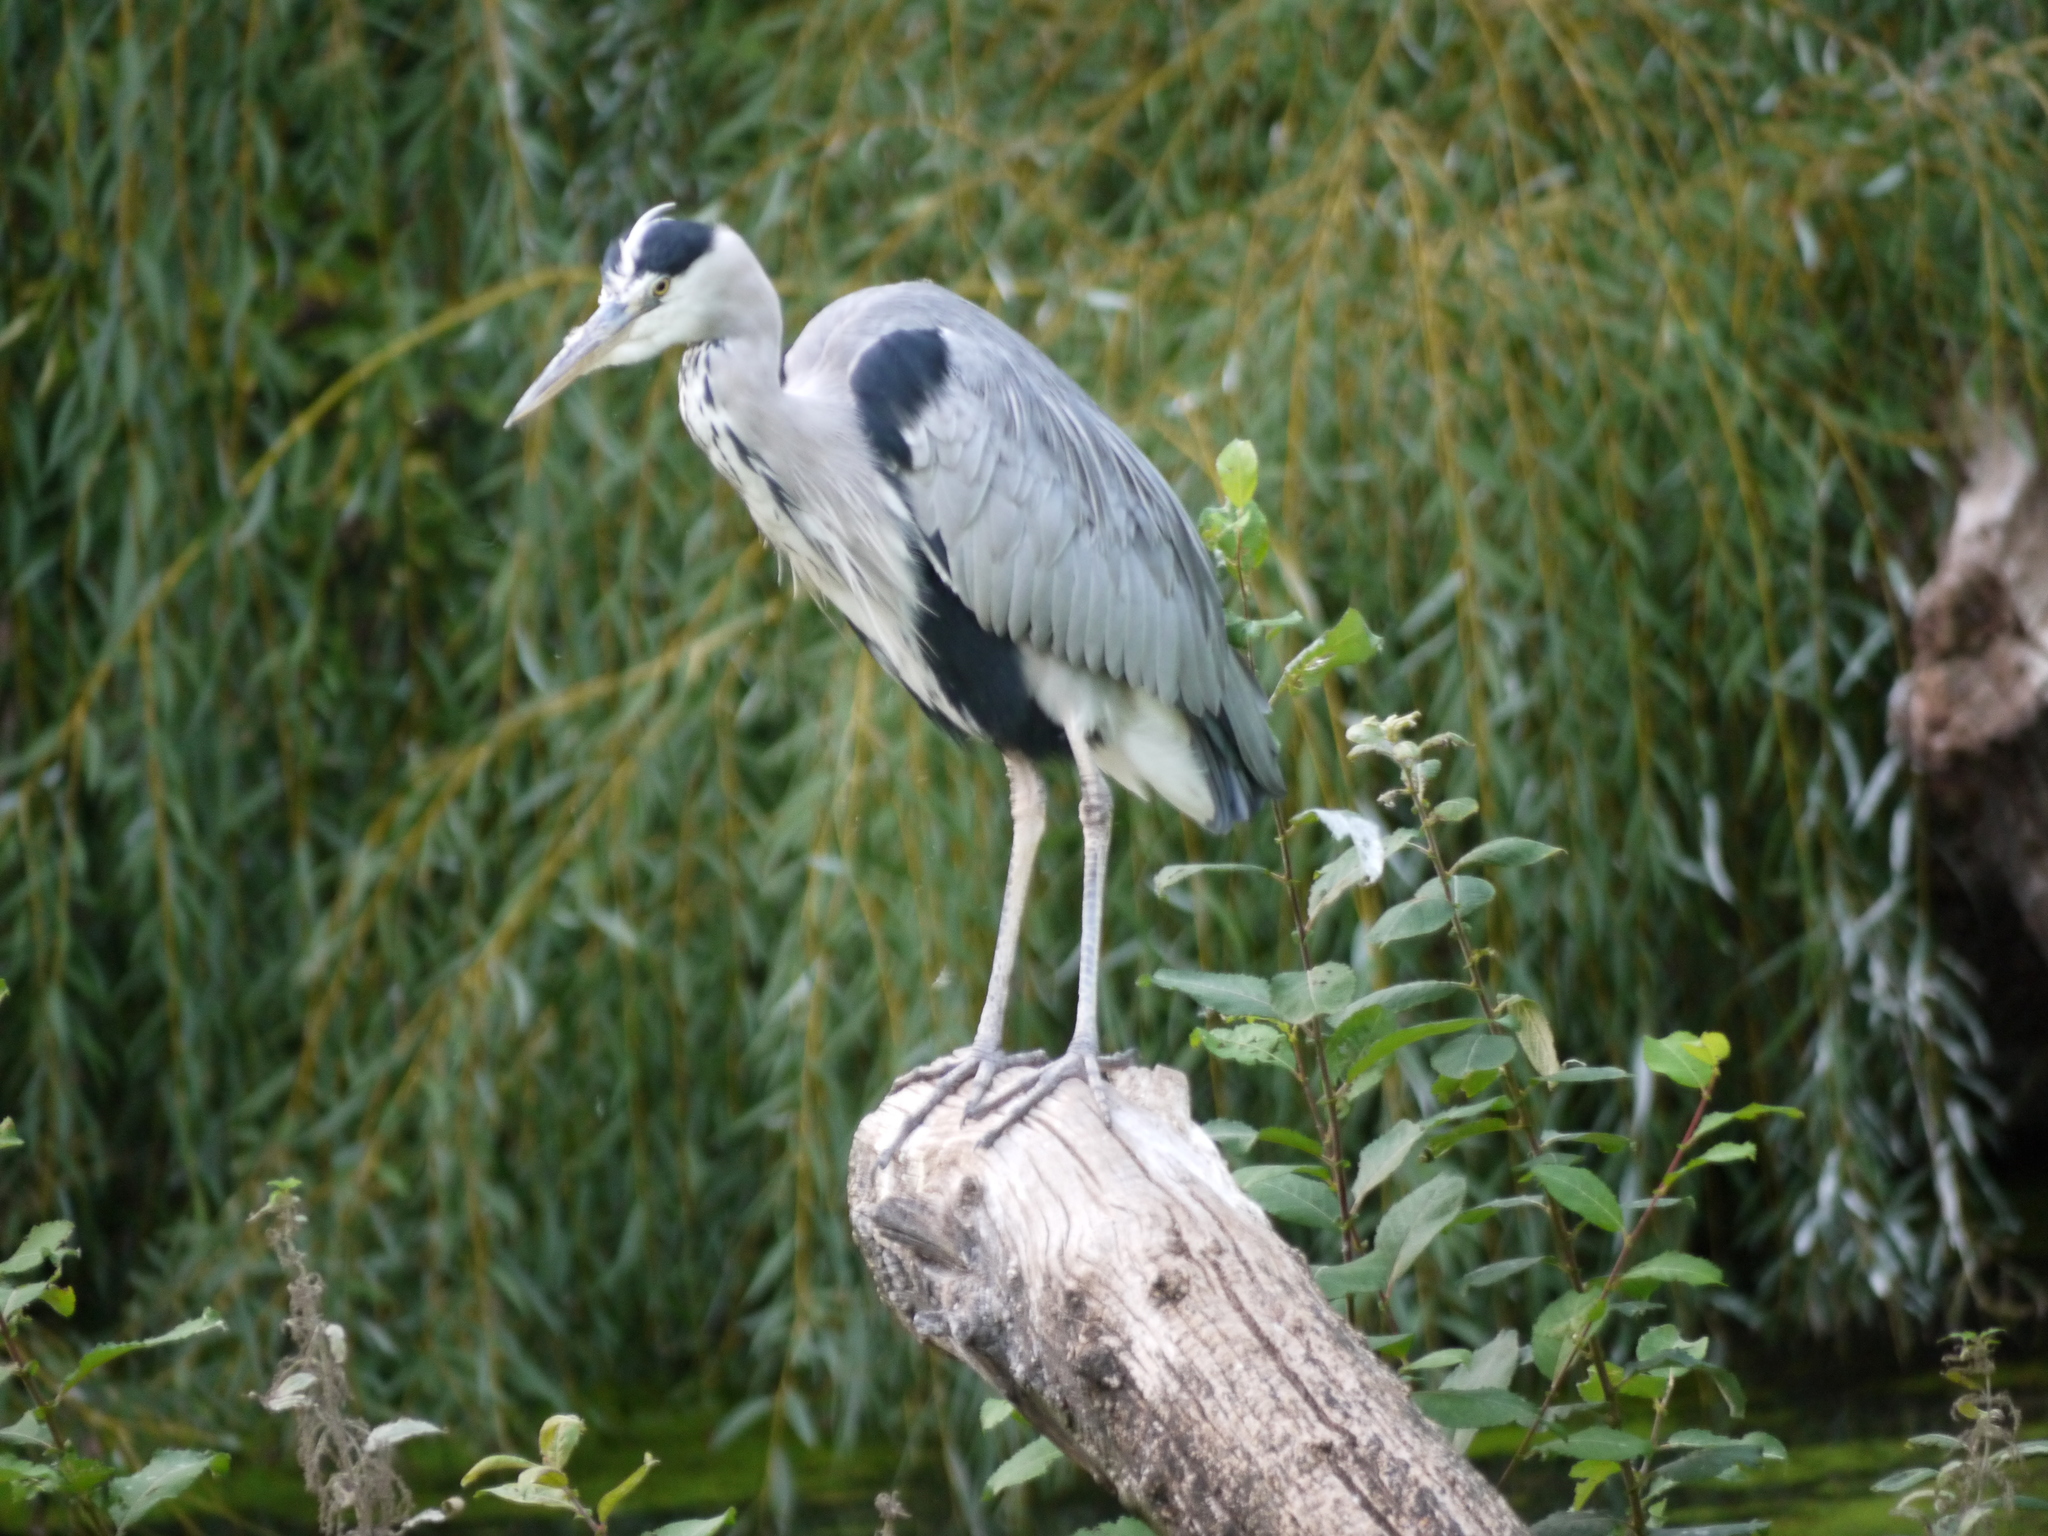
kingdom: Animalia
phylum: Chordata
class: Aves
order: Pelecaniformes
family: Ardeidae
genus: Ardea
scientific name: Ardea cinerea
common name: Grey heron
